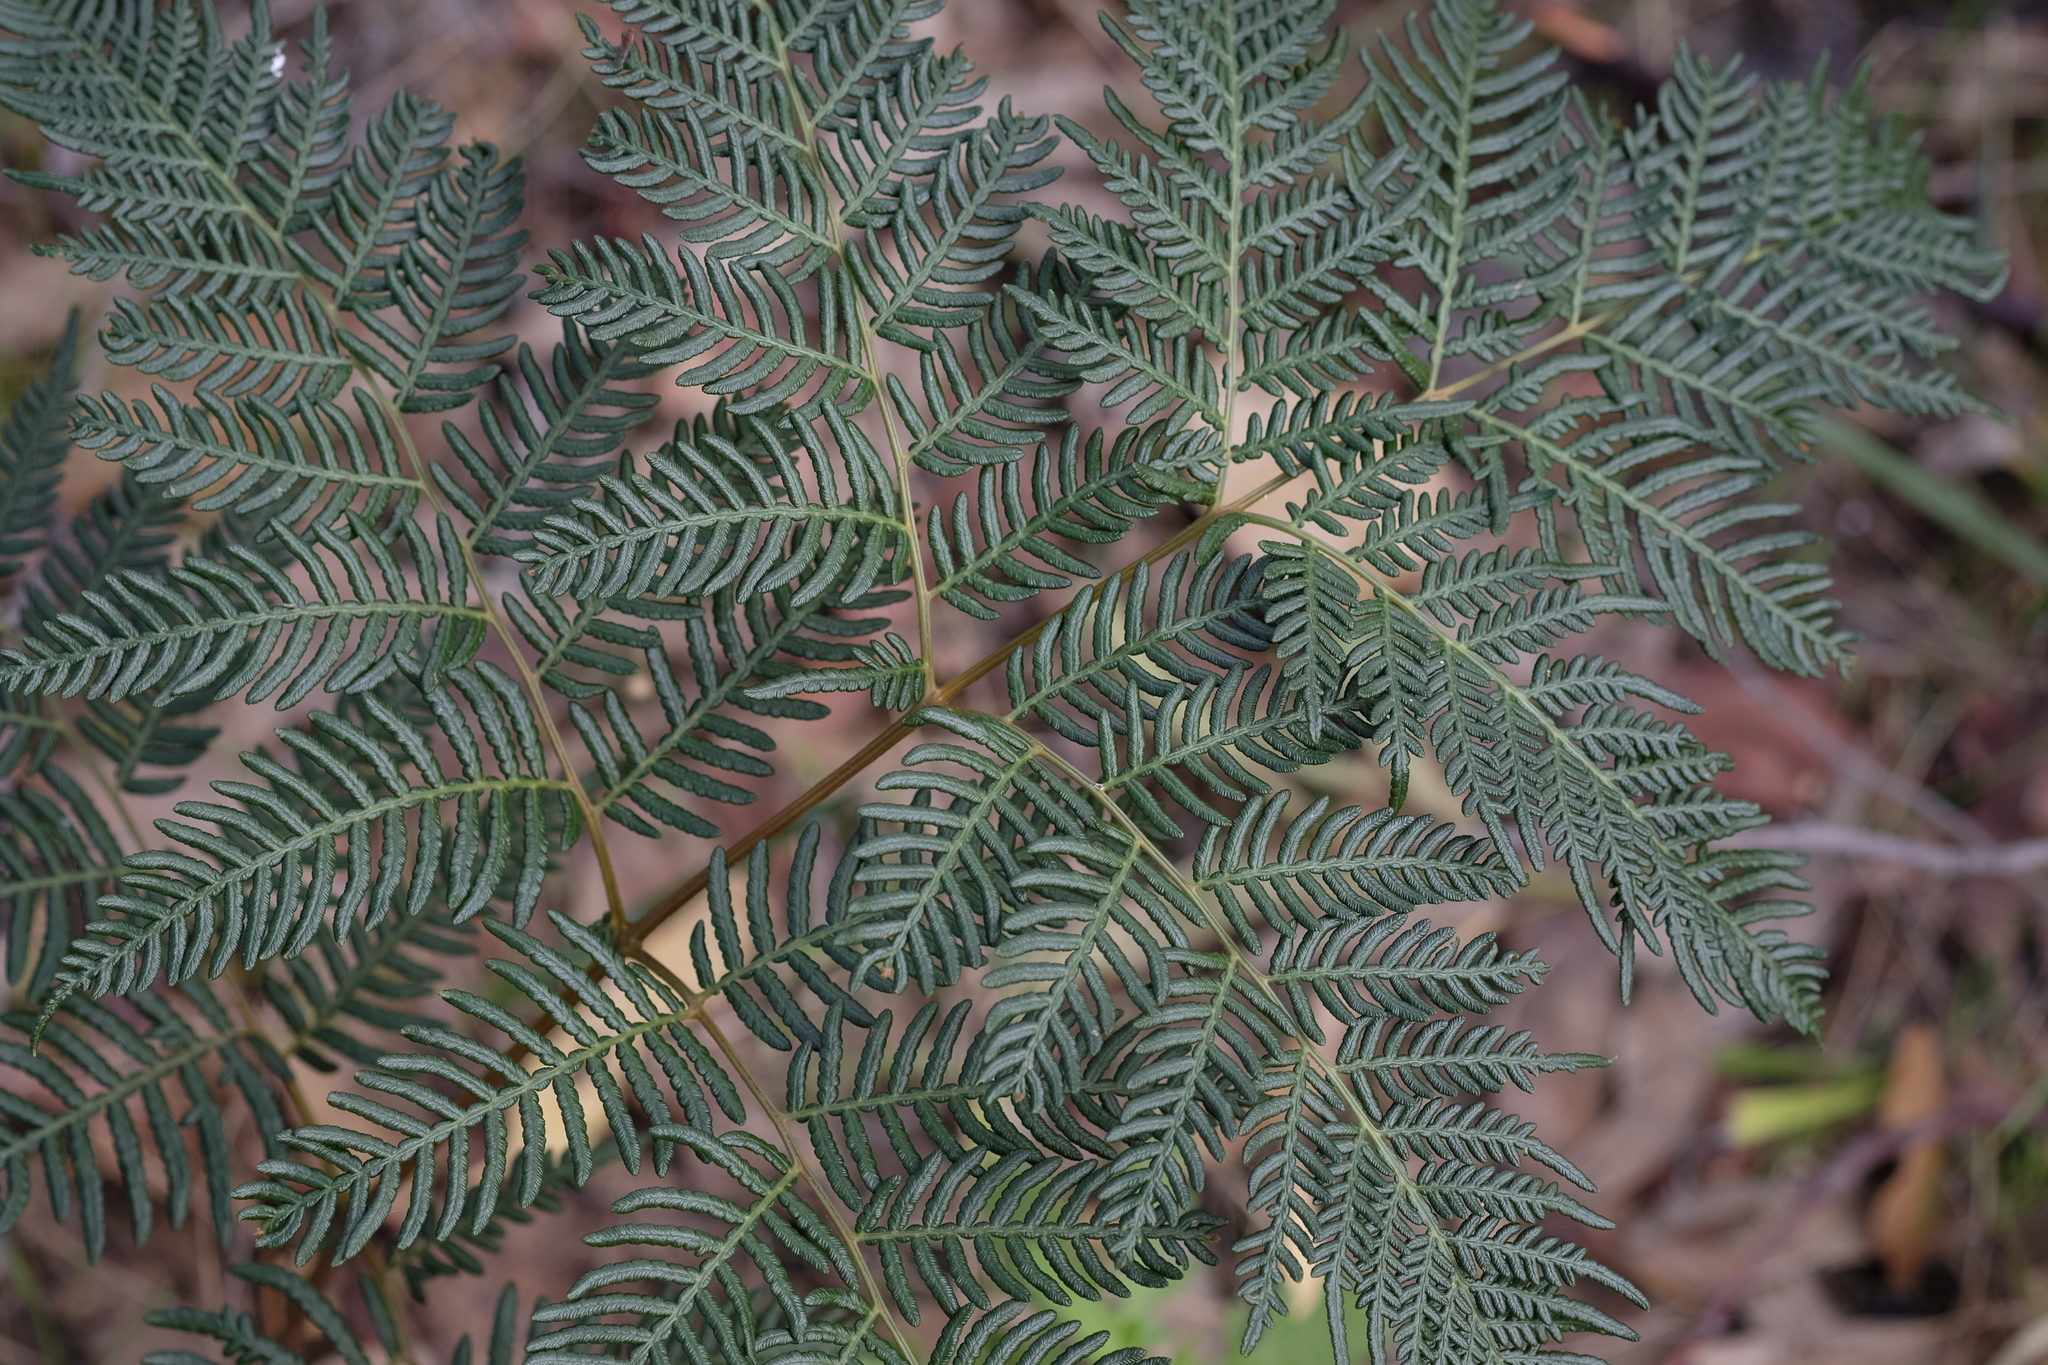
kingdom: Plantae
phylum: Tracheophyta
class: Polypodiopsida
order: Polypodiales
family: Dennstaedtiaceae
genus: Pteridium
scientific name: Pteridium esculentum
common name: Bracken fern
